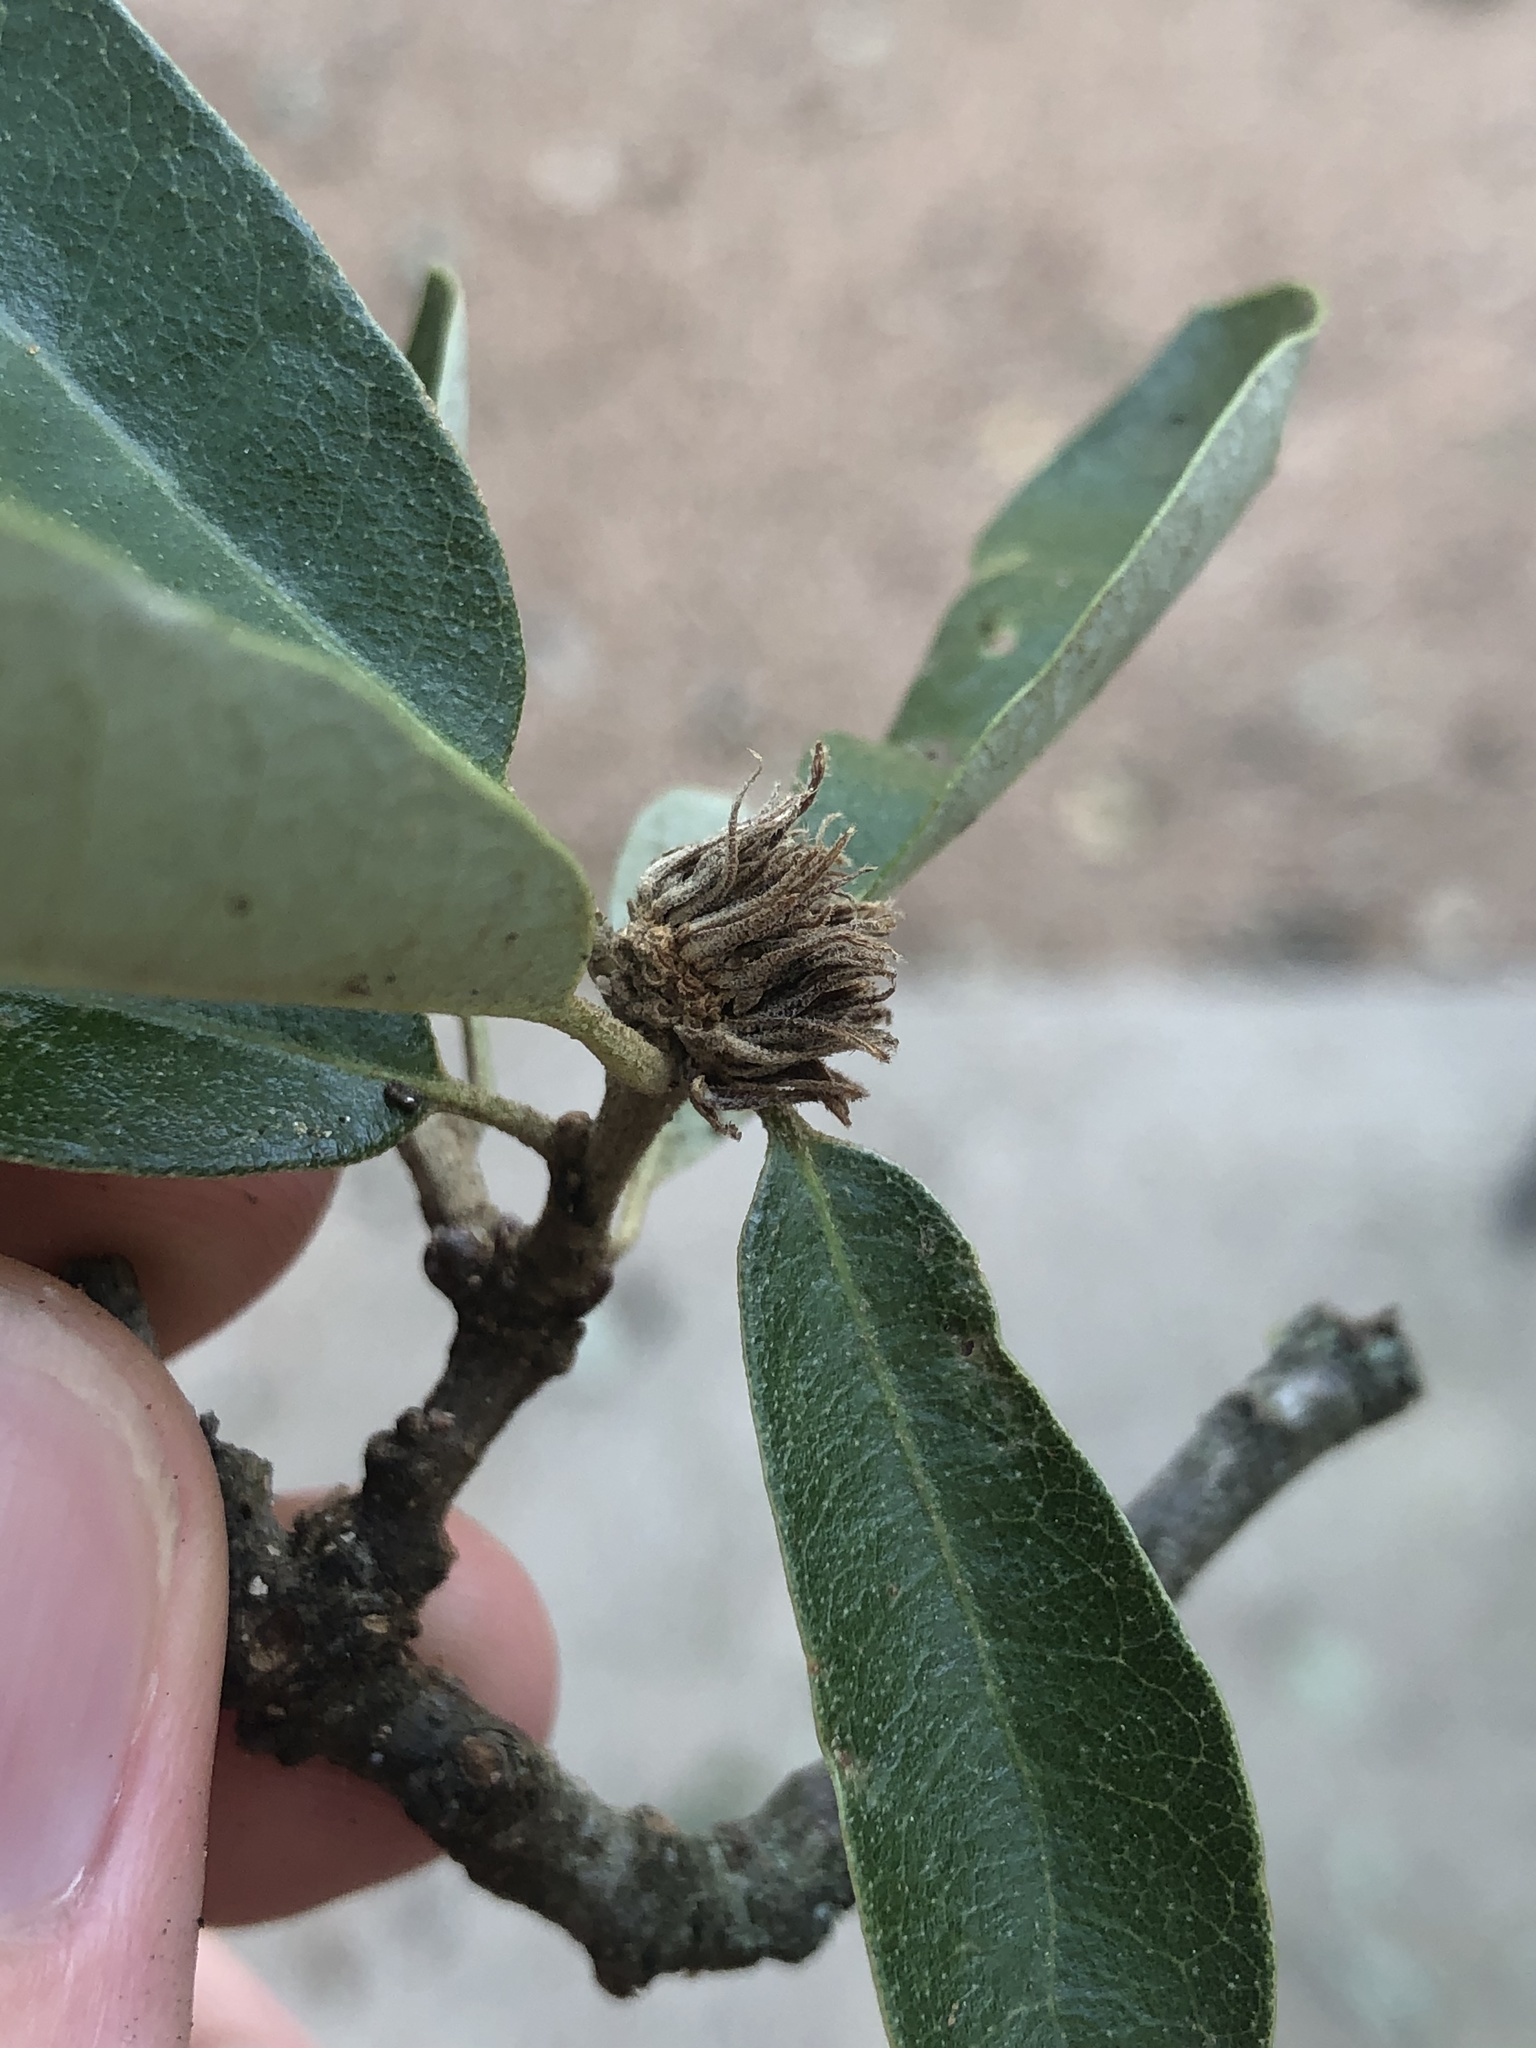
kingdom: Animalia
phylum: Arthropoda
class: Insecta
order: Hymenoptera
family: Cynipidae
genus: Andricus
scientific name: Andricus quercusfoliatus
